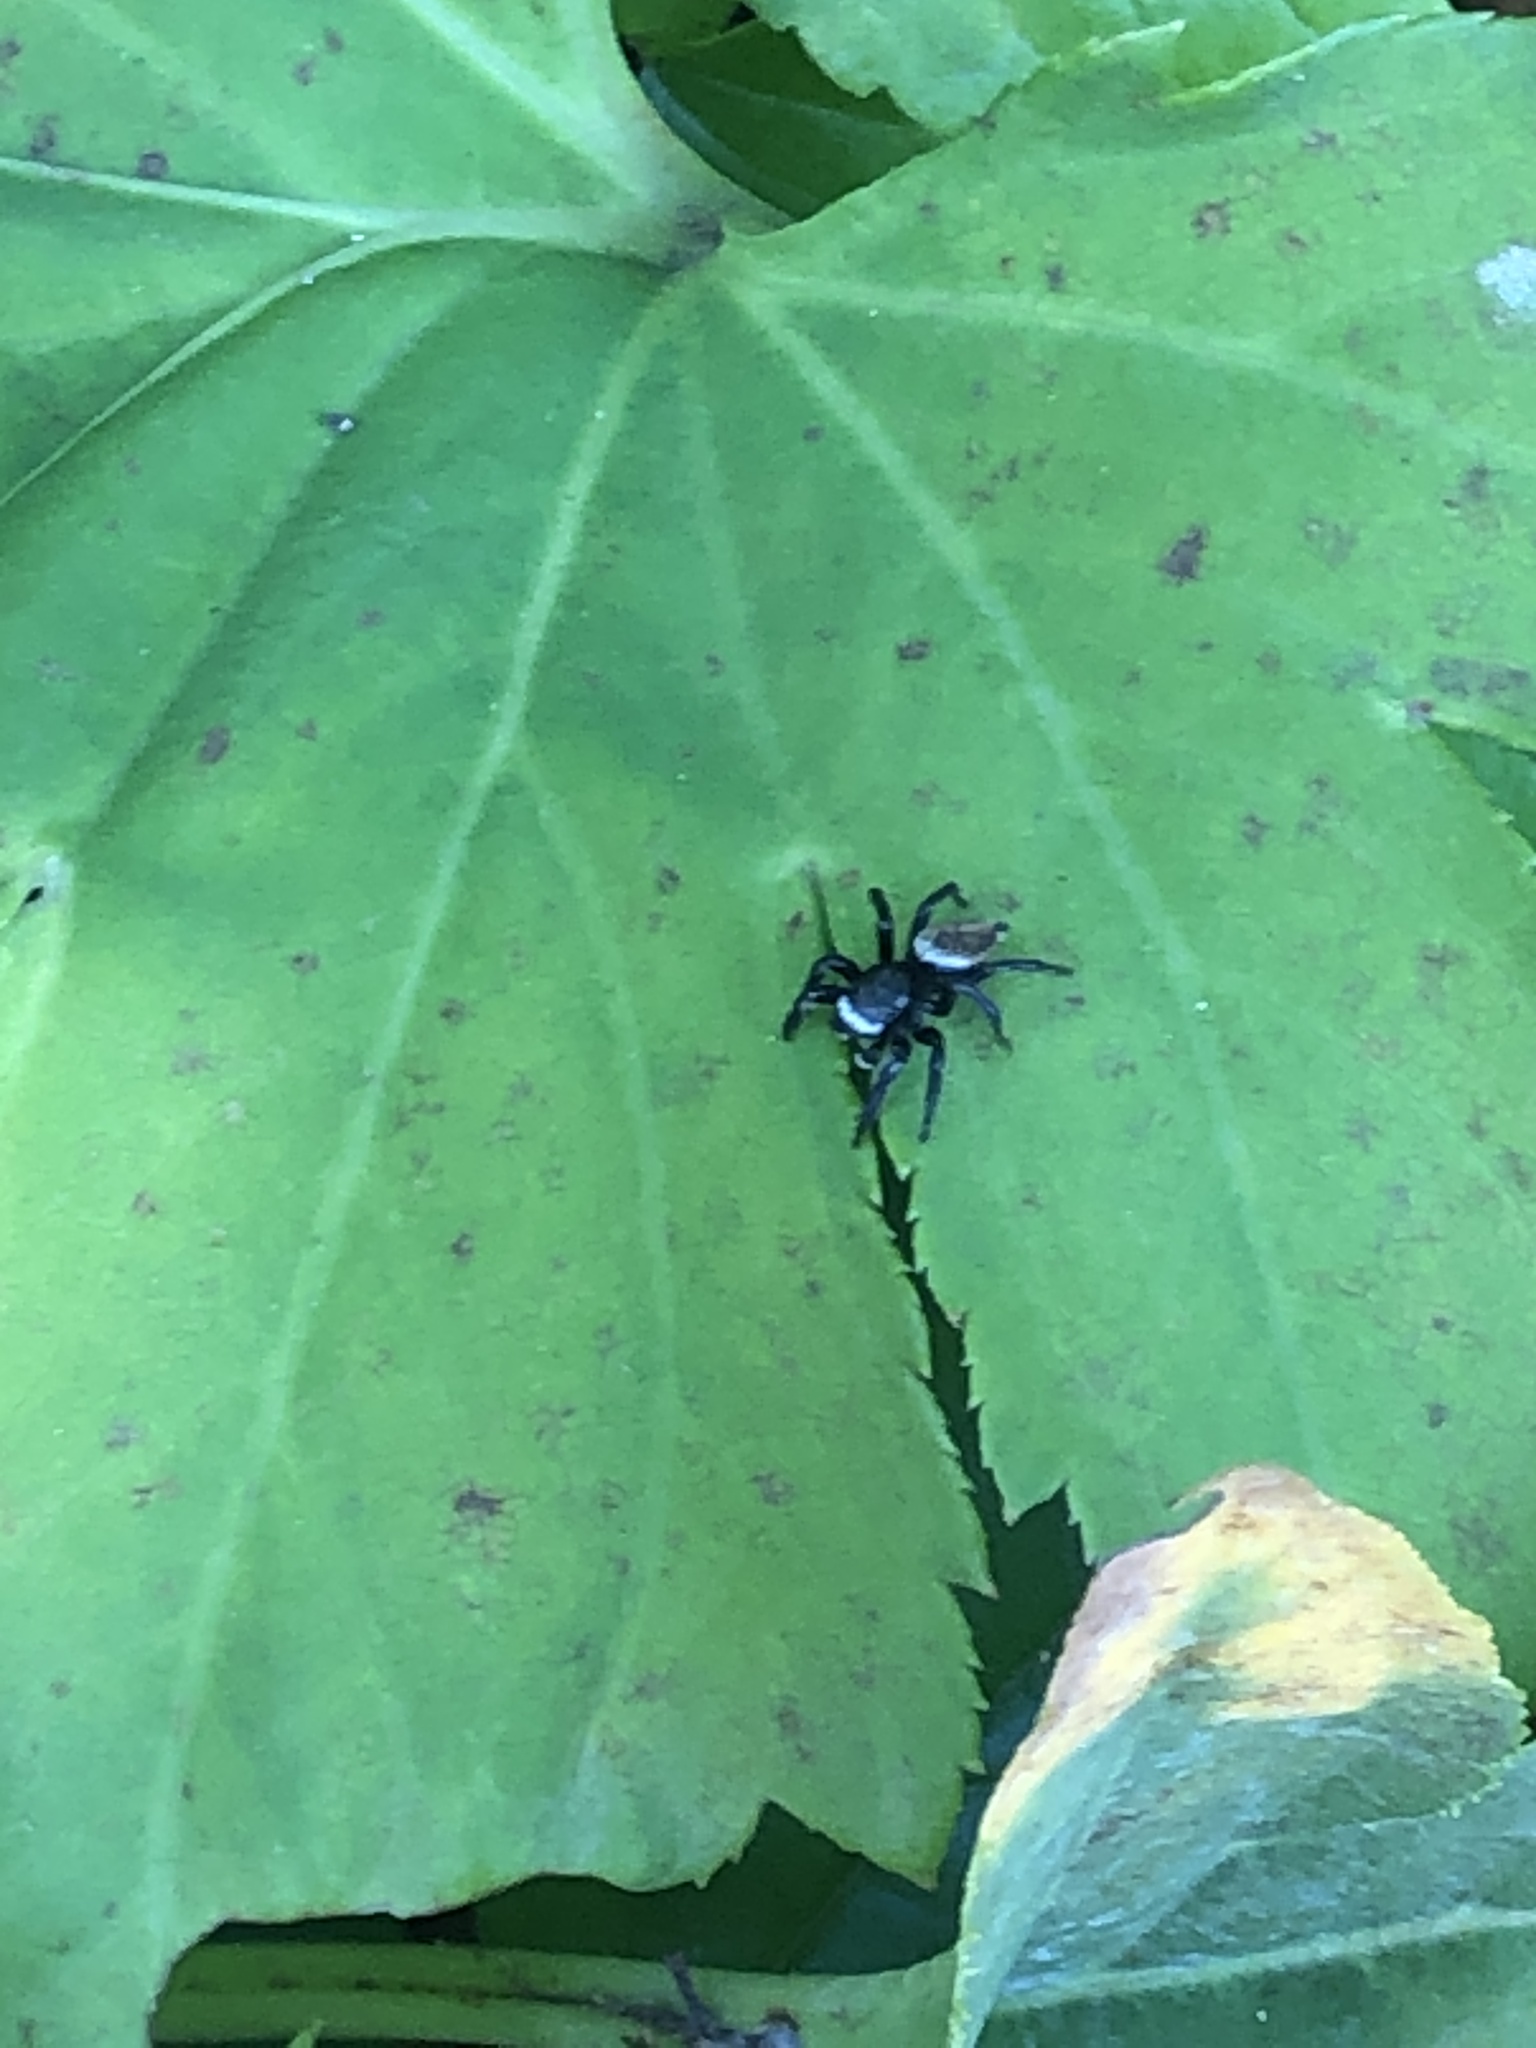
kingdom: Animalia
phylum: Arthropoda
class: Arachnida
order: Araneae
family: Salticidae
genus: Evarcha
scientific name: Evarcha albaria
